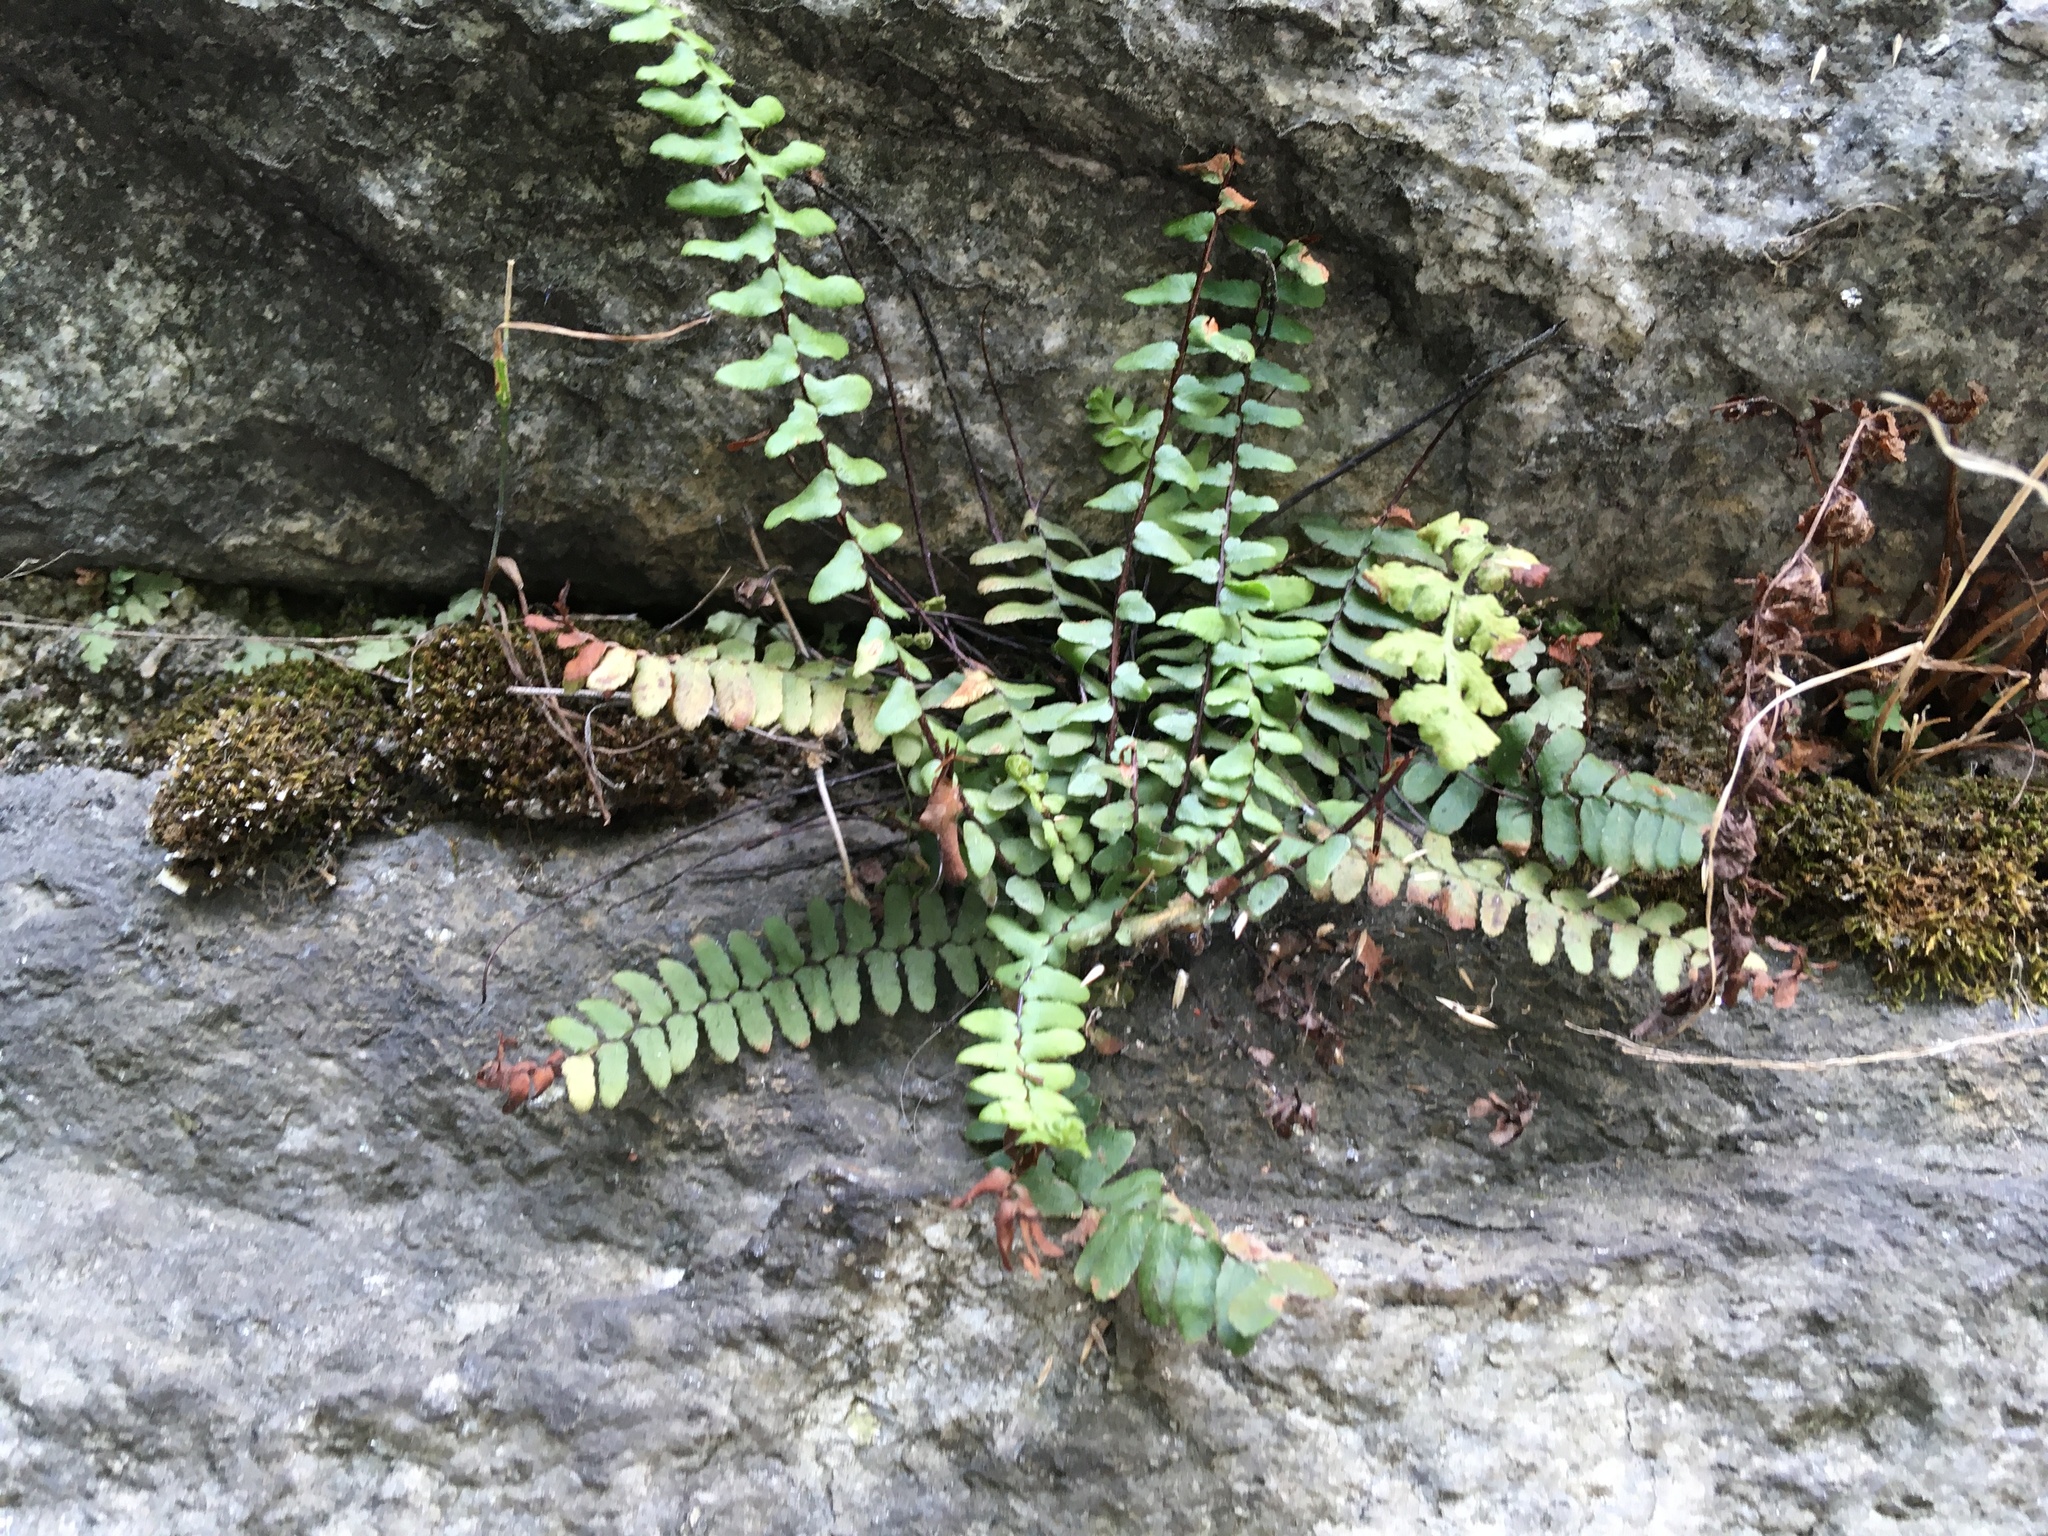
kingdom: Plantae
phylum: Tracheophyta
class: Polypodiopsida
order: Polypodiales
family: Aspleniaceae
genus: Asplenium
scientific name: Asplenium platyneuron
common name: Ebony spleenwort
